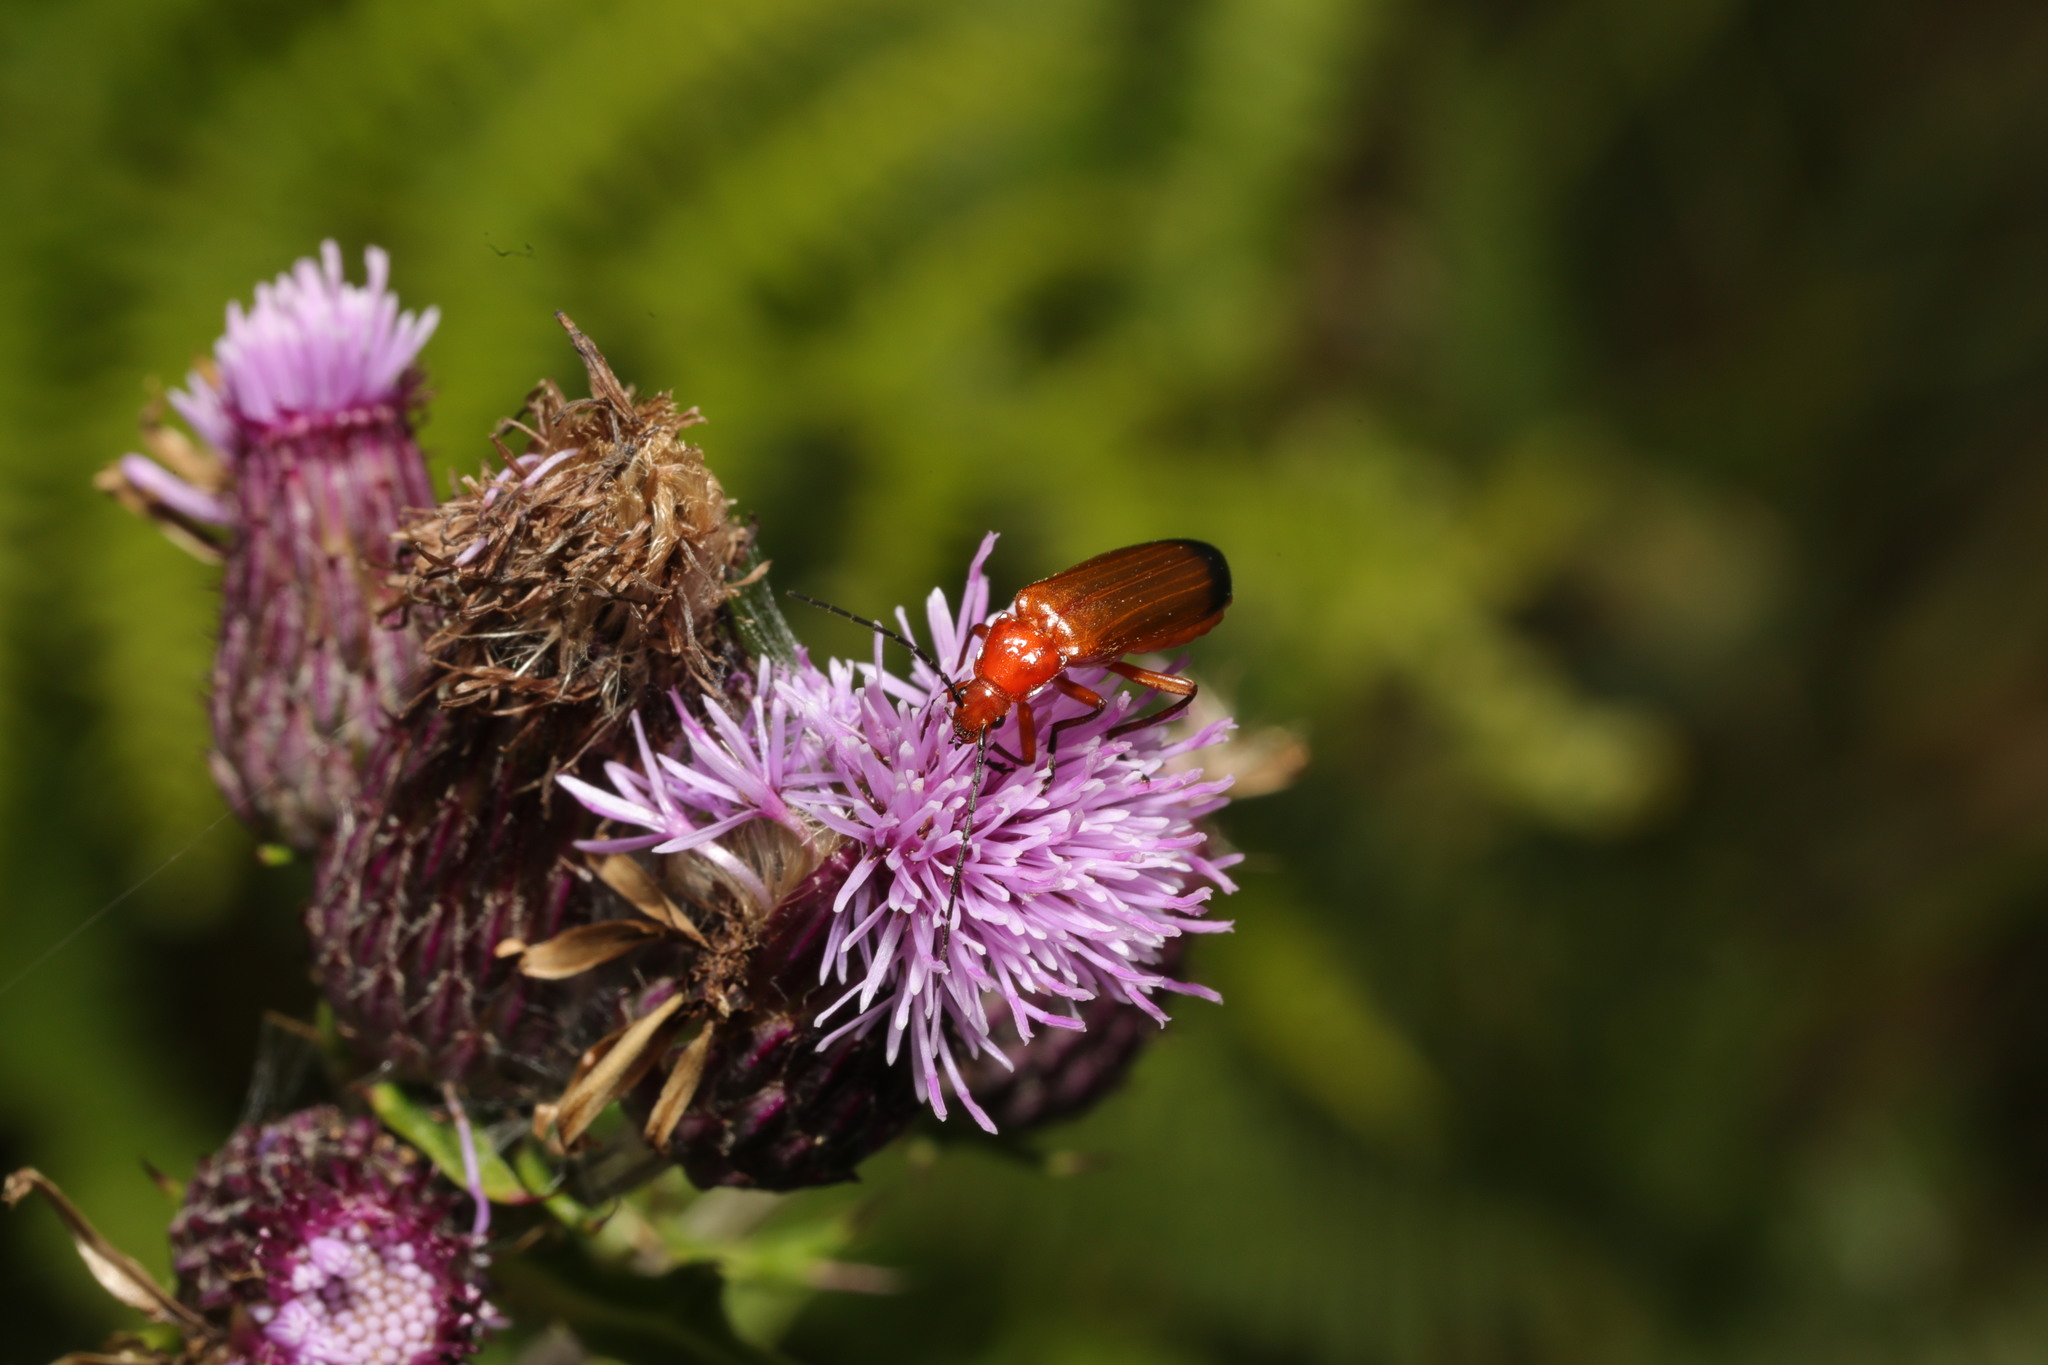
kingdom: Animalia
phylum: Arthropoda
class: Insecta
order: Coleoptera
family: Cantharidae
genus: Rhagonycha
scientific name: Rhagonycha fulva
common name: Common red soldier beetle
